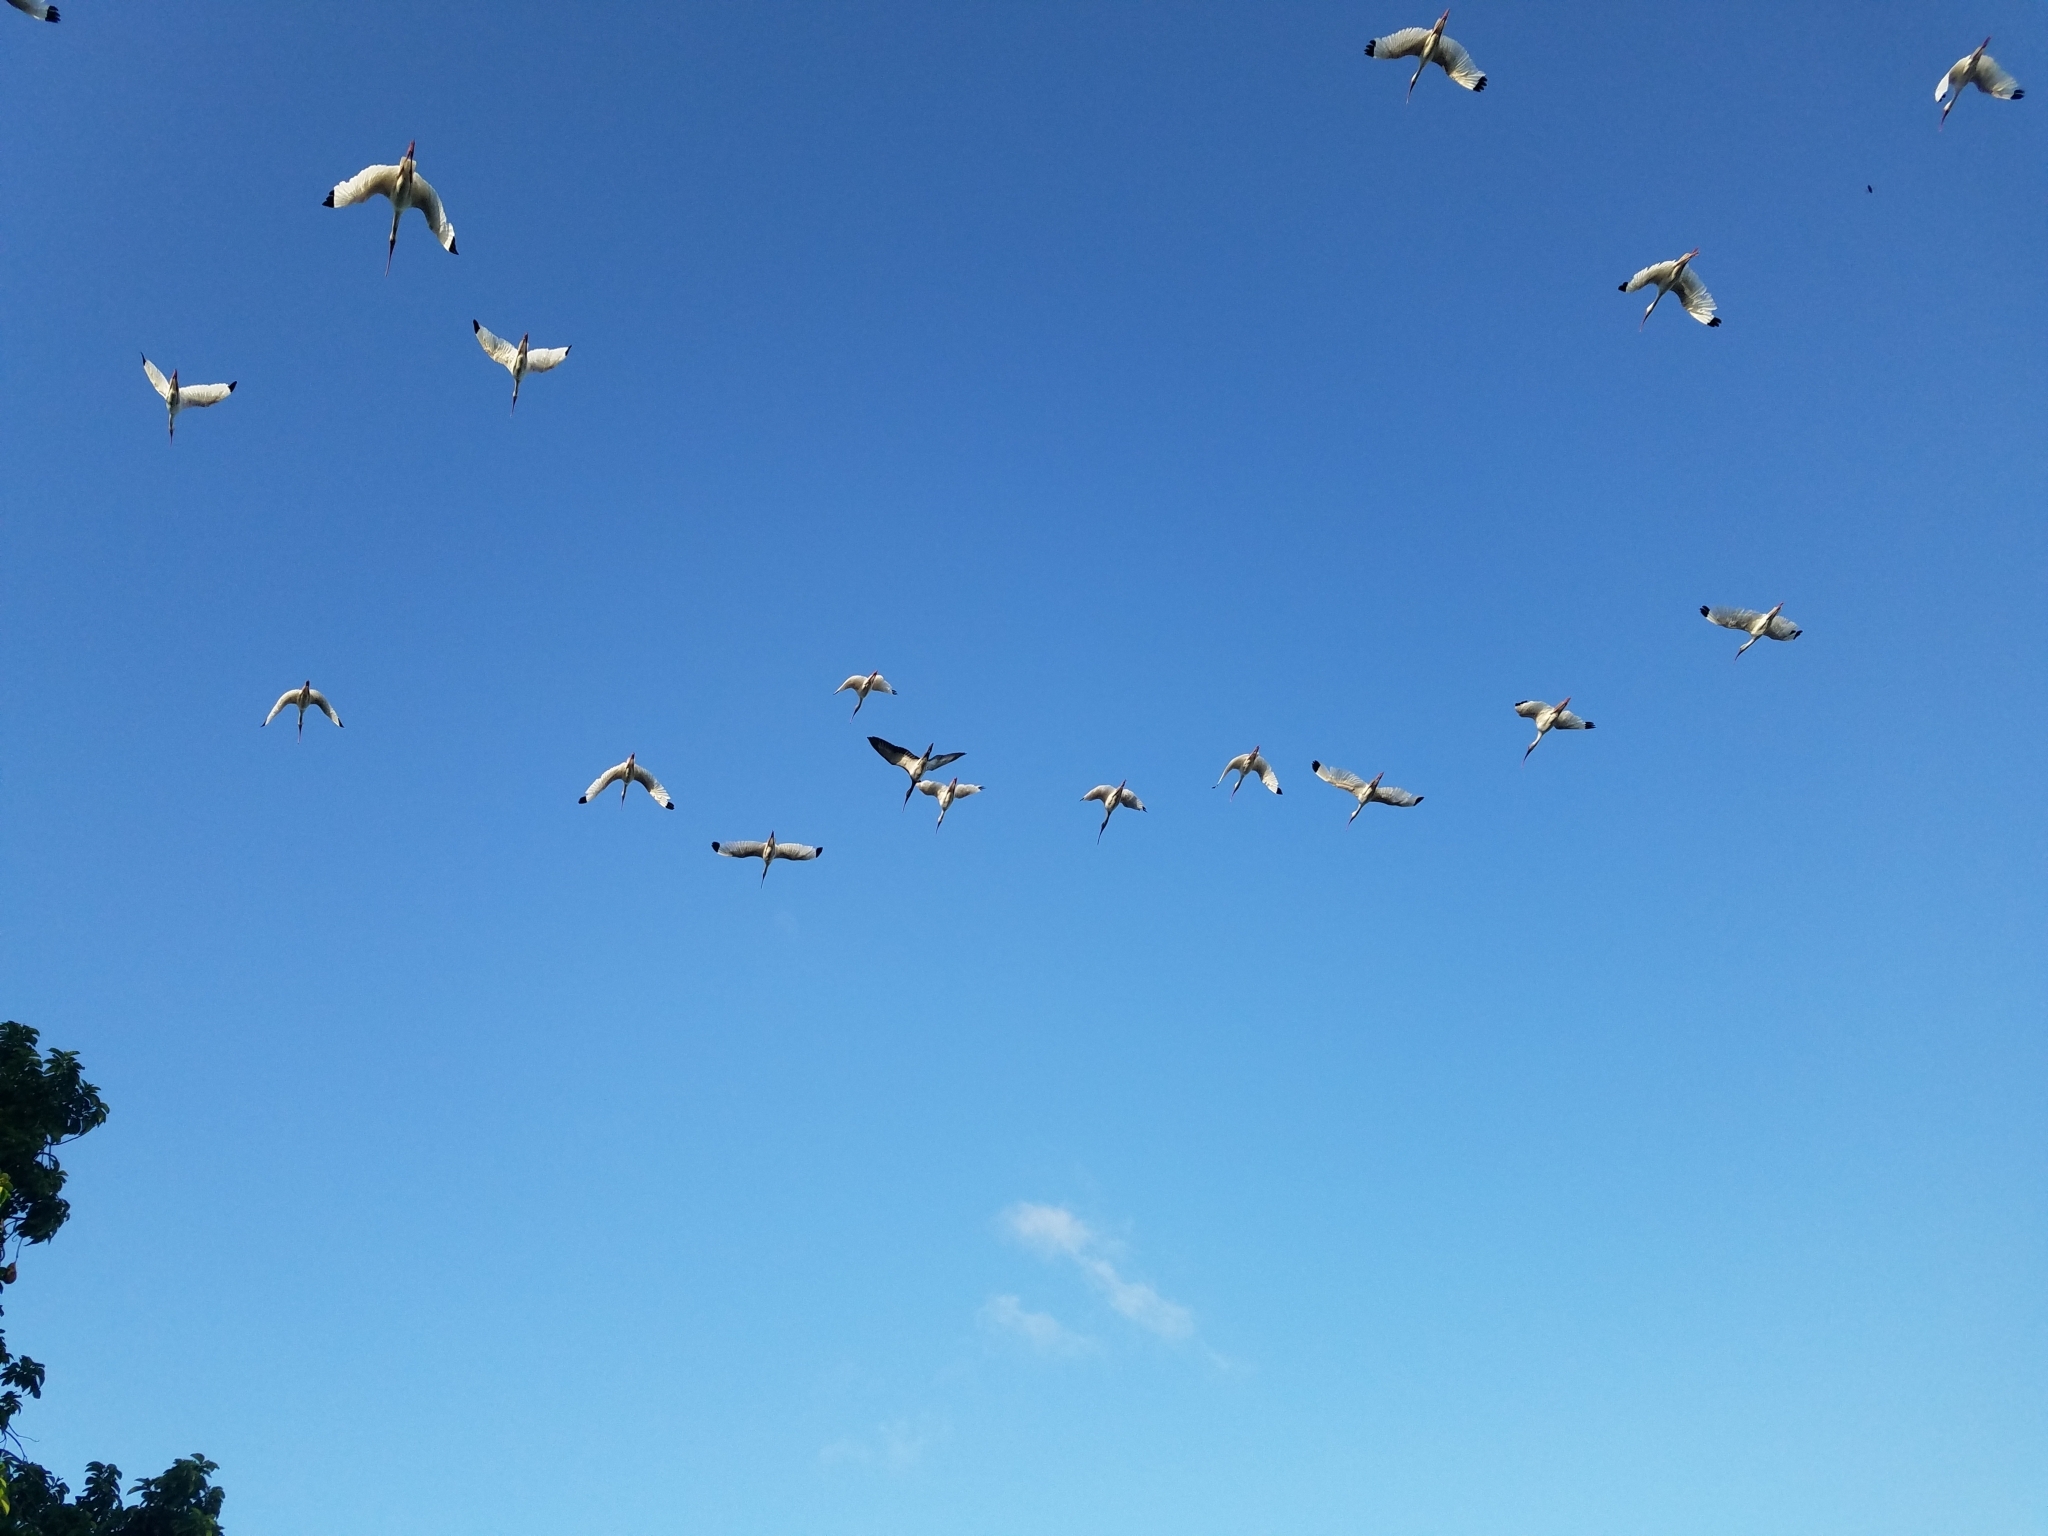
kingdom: Animalia
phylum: Chordata
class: Aves
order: Pelecaniformes
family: Threskiornithidae
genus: Eudocimus
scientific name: Eudocimus albus
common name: White ibis
